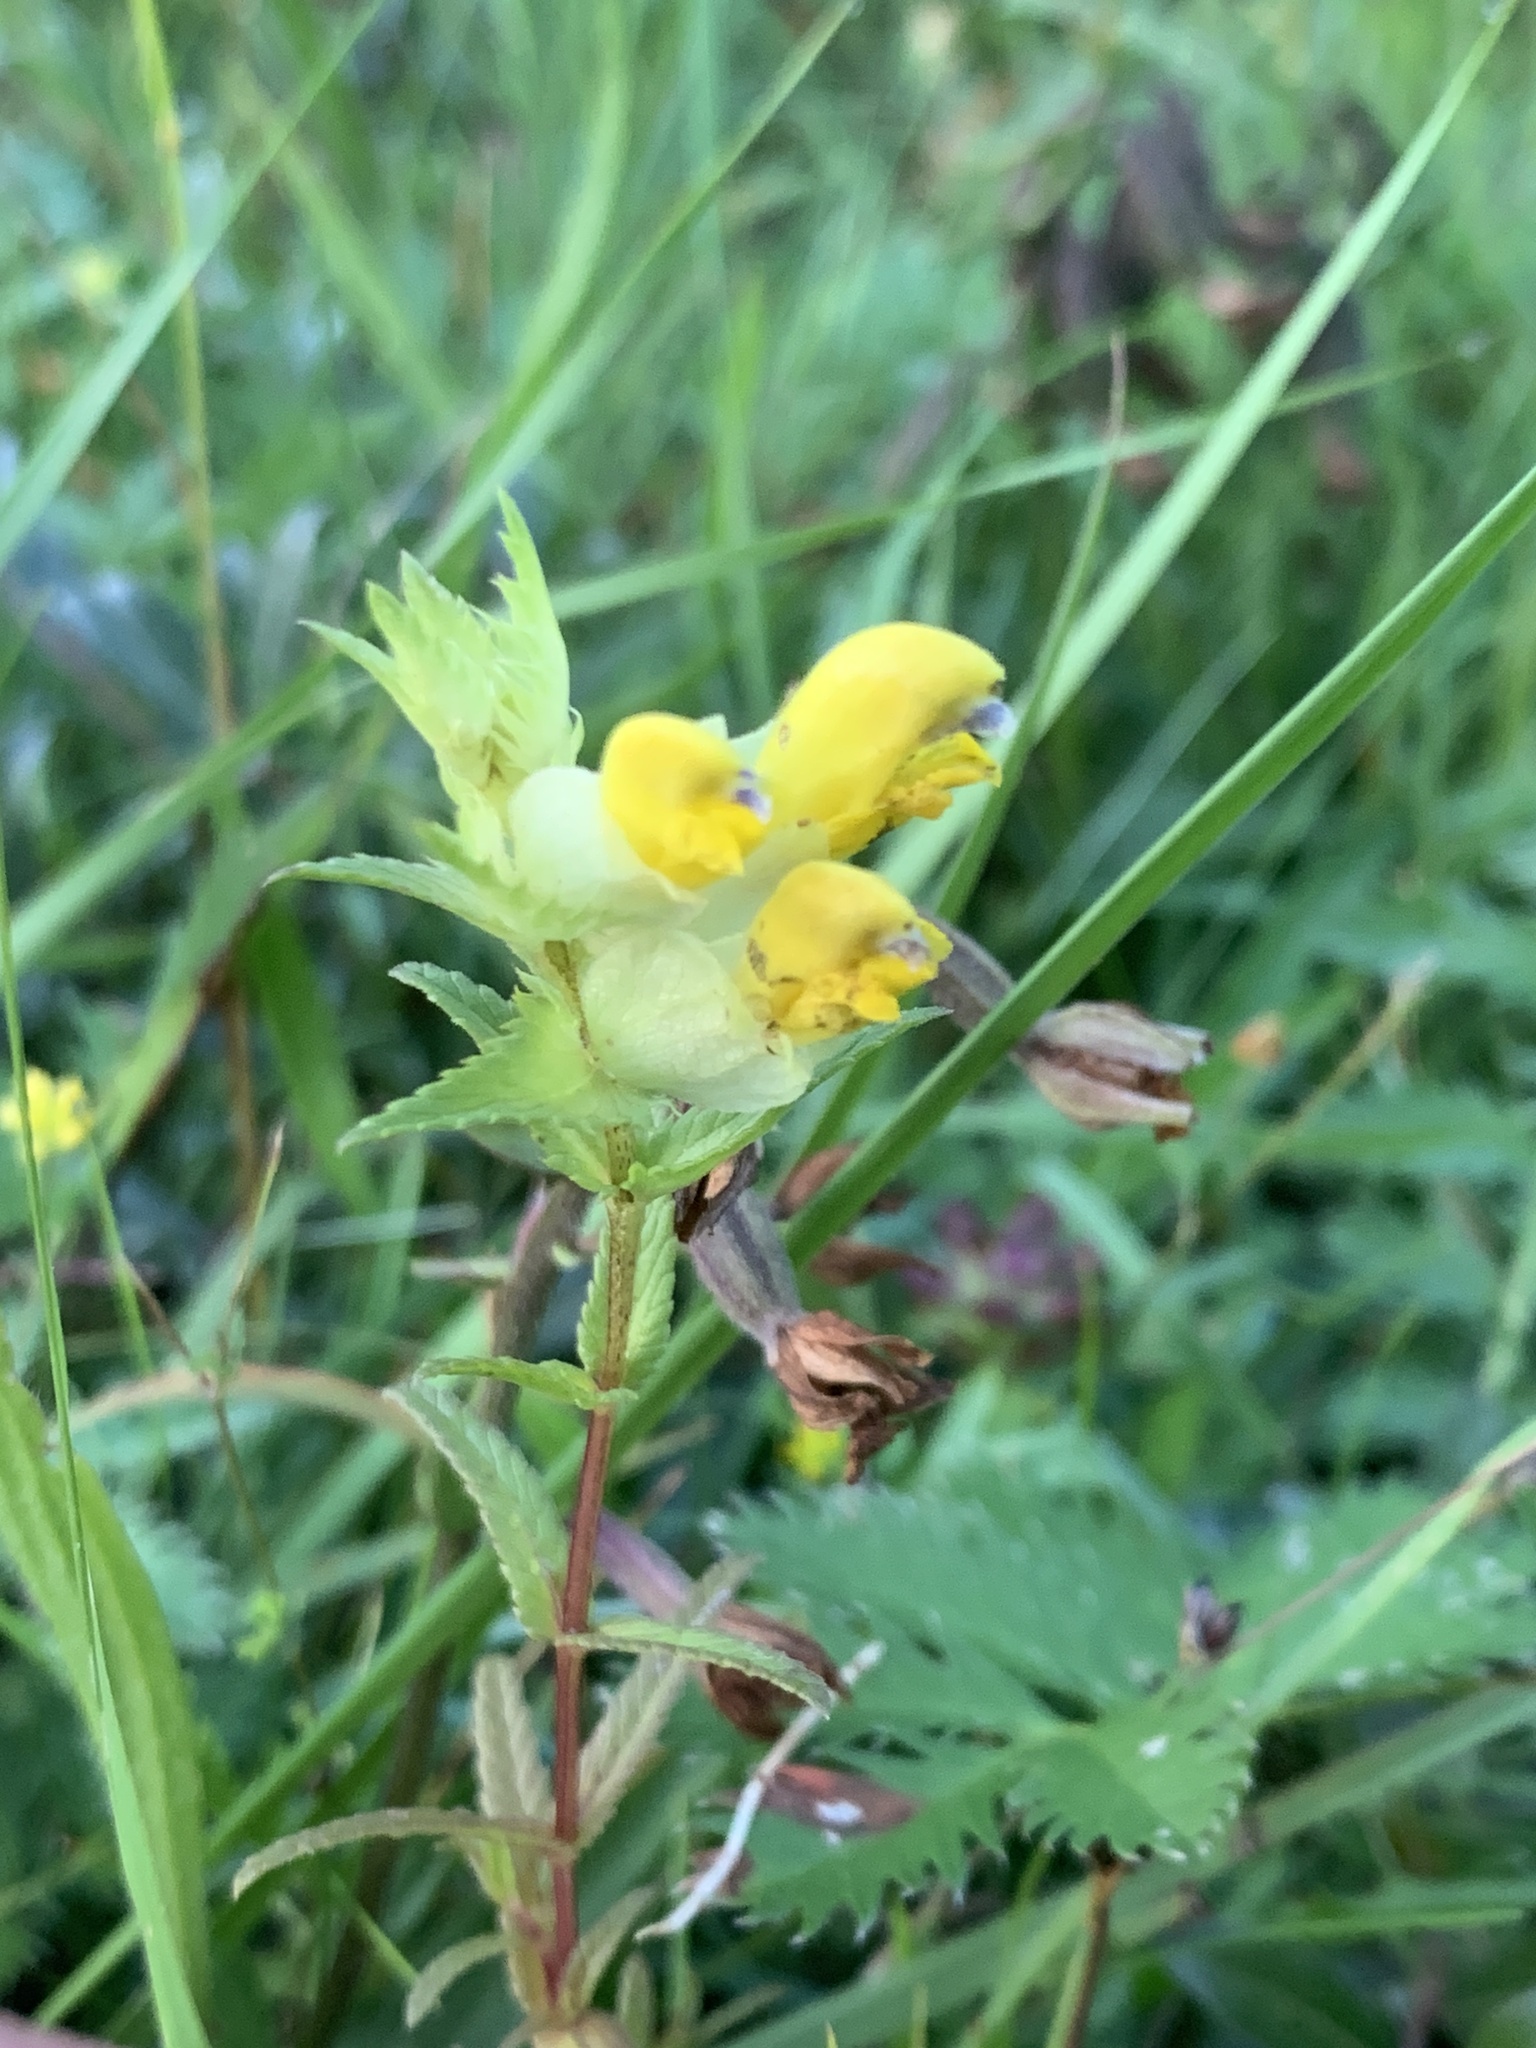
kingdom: Plantae
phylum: Tracheophyta
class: Magnoliopsida
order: Lamiales
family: Orobanchaceae
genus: Rhinanthus
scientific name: Rhinanthus serotinus
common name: Late-flowering yellow rattle
